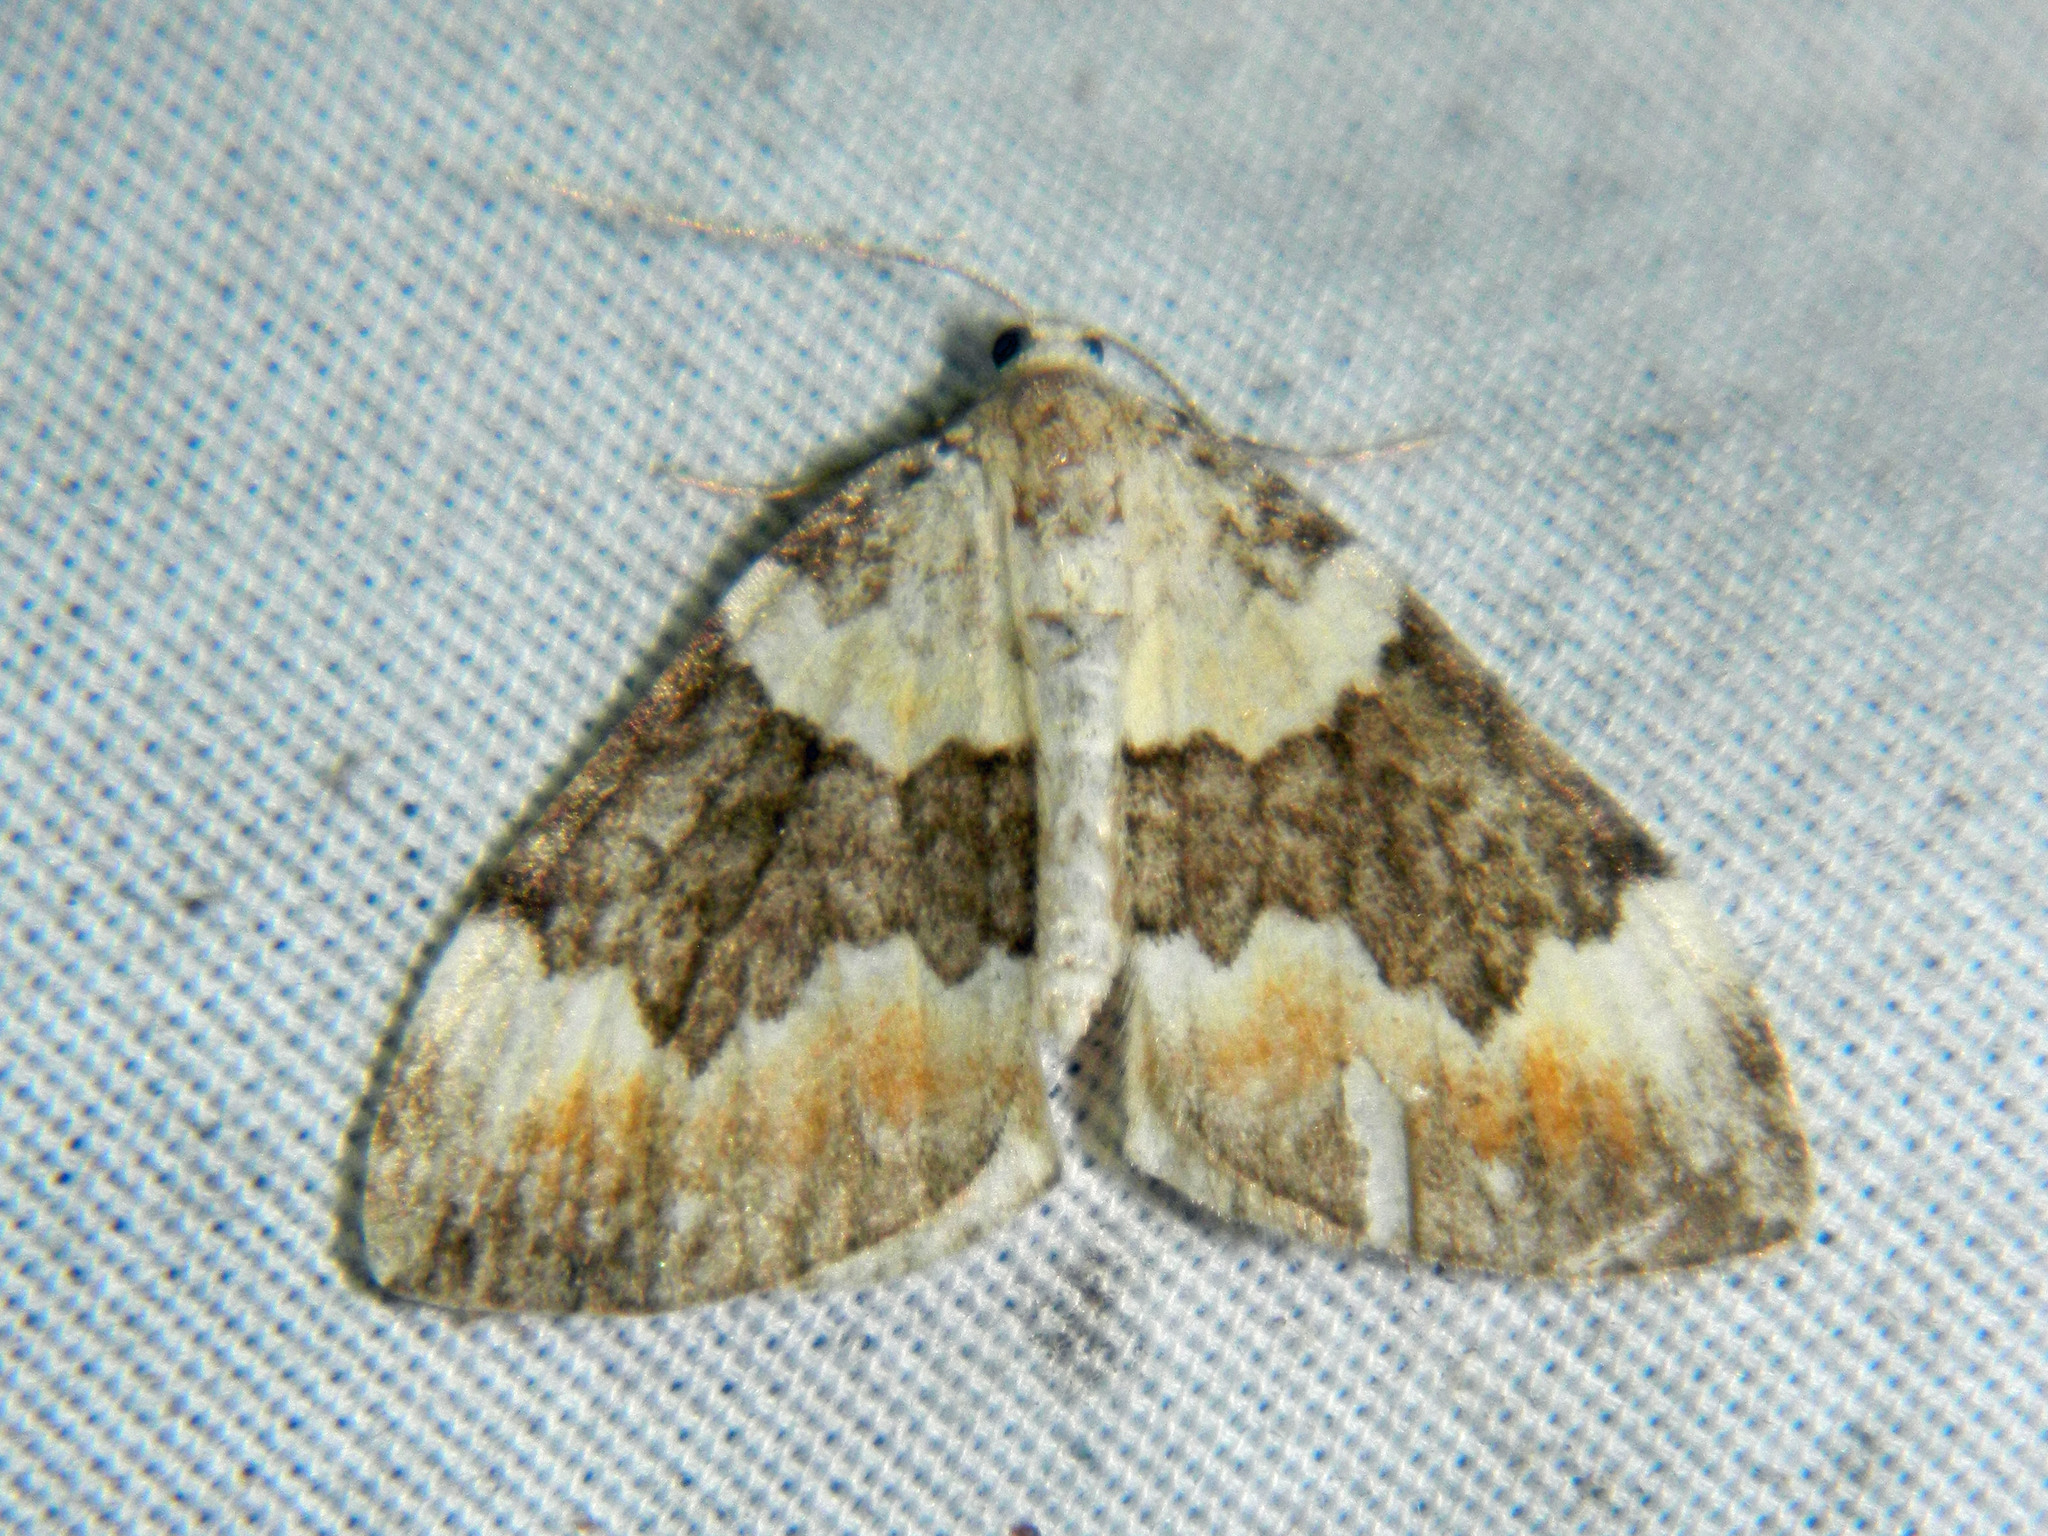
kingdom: Animalia
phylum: Arthropoda
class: Insecta
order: Lepidoptera
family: Geometridae
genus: Dysstroma
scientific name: Dysstroma brunneata
